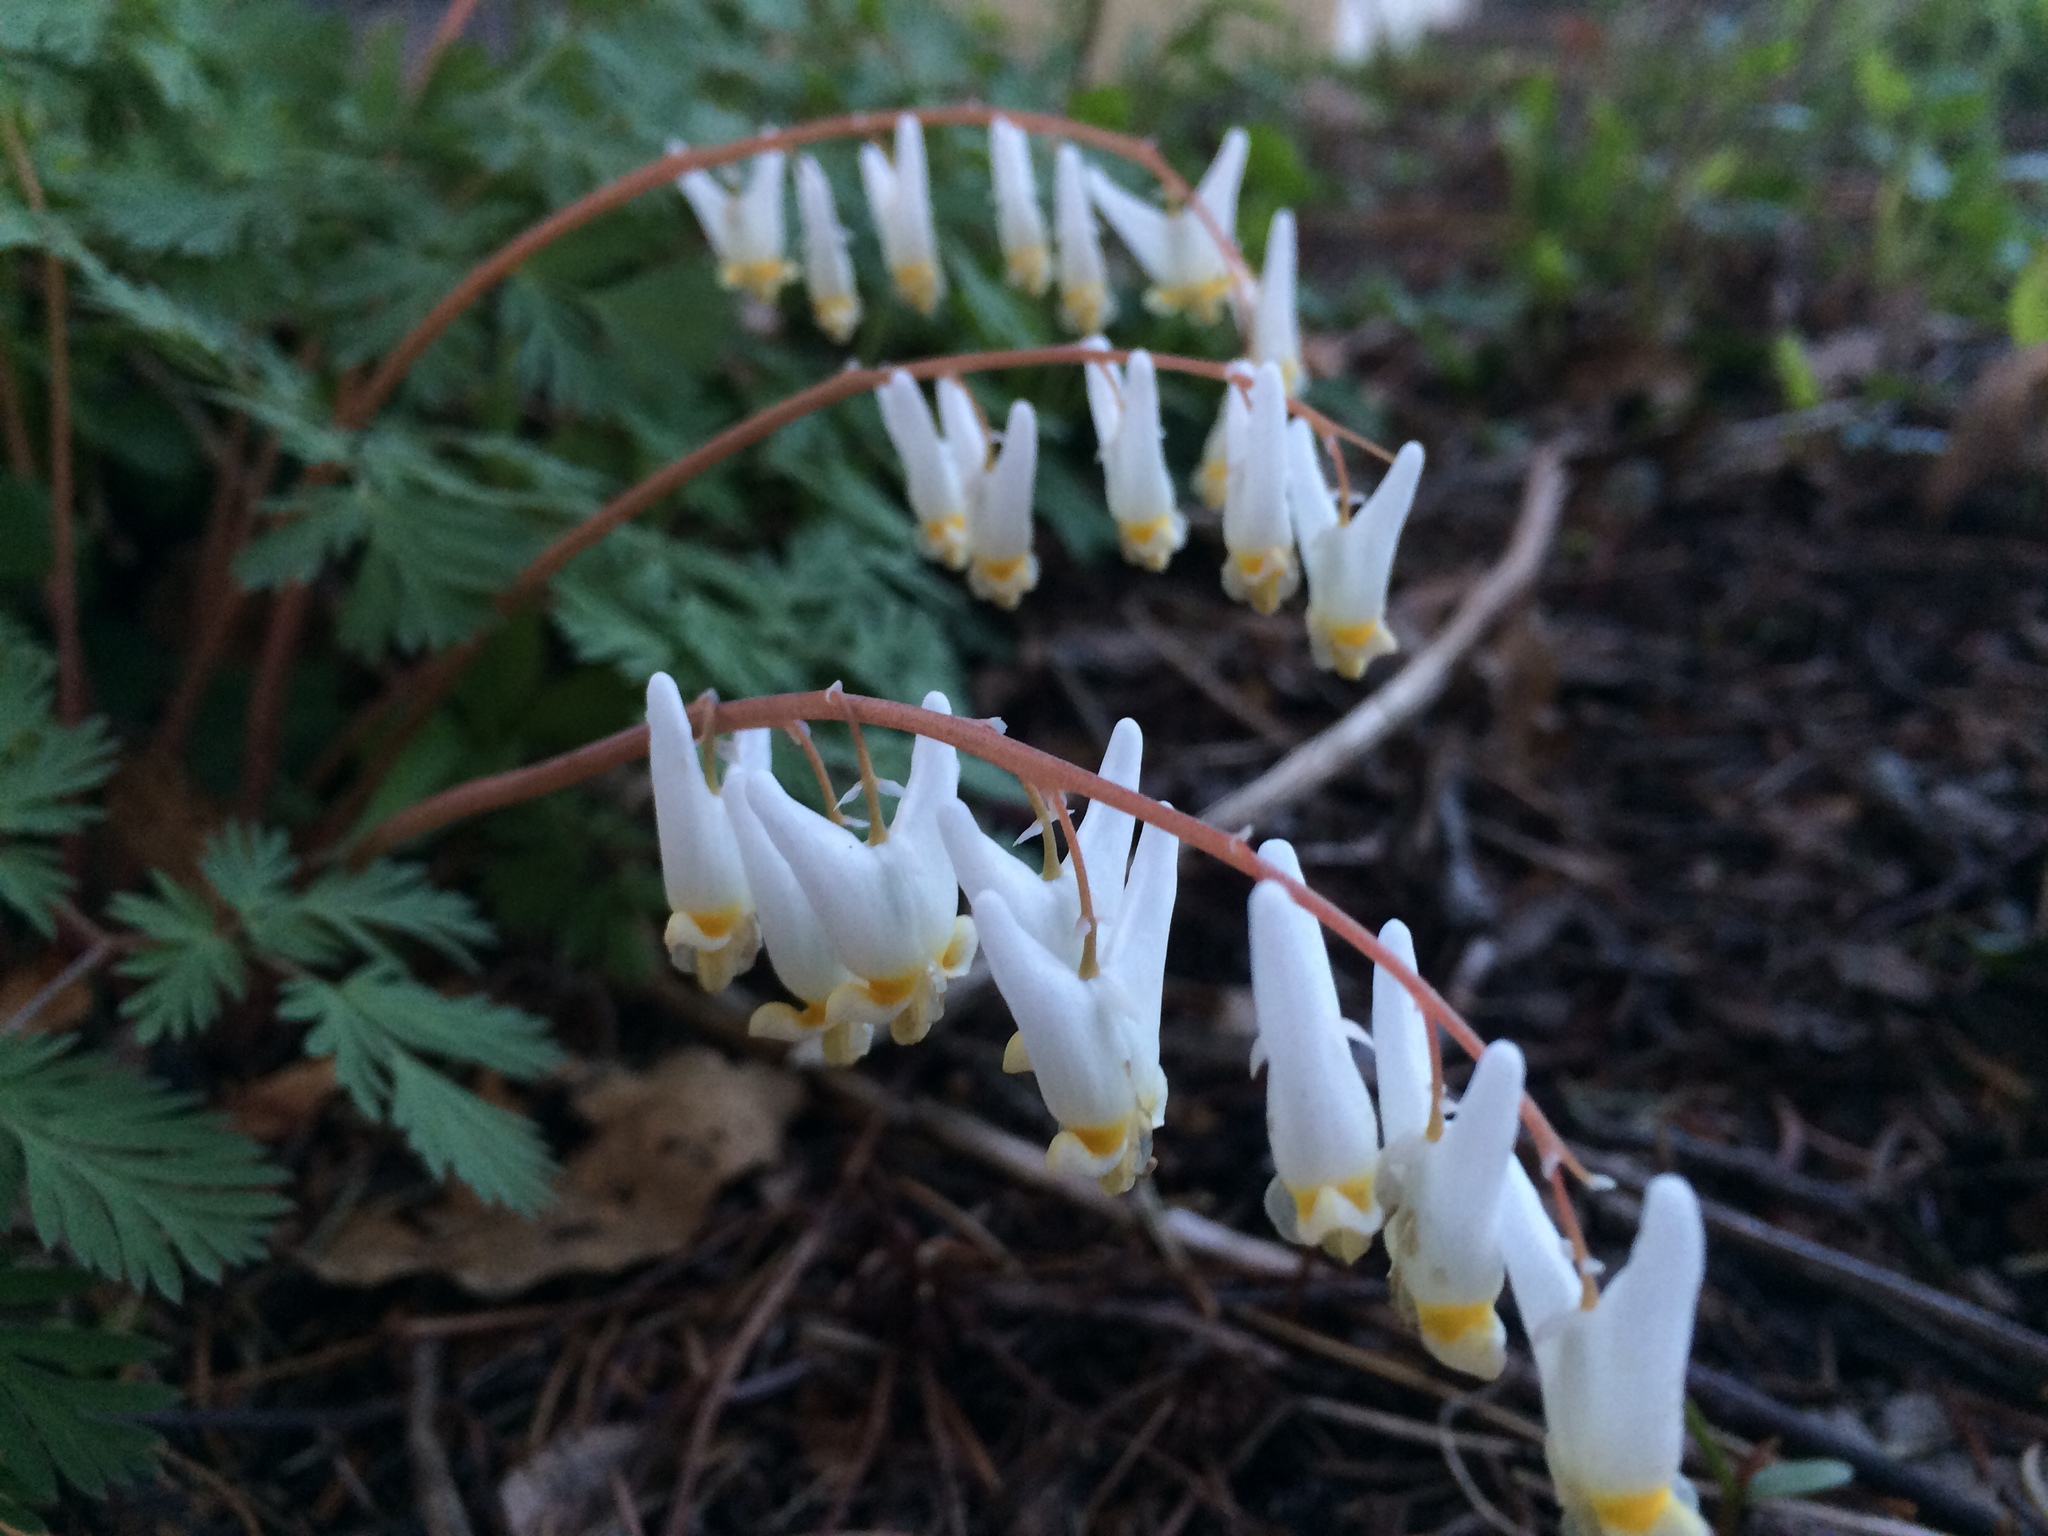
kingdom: Plantae
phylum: Tracheophyta
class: Magnoliopsida
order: Ranunculales
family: Papaveraceae
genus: Dicentra
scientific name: Dicentra cucullaria
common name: Dutchman's breeches
